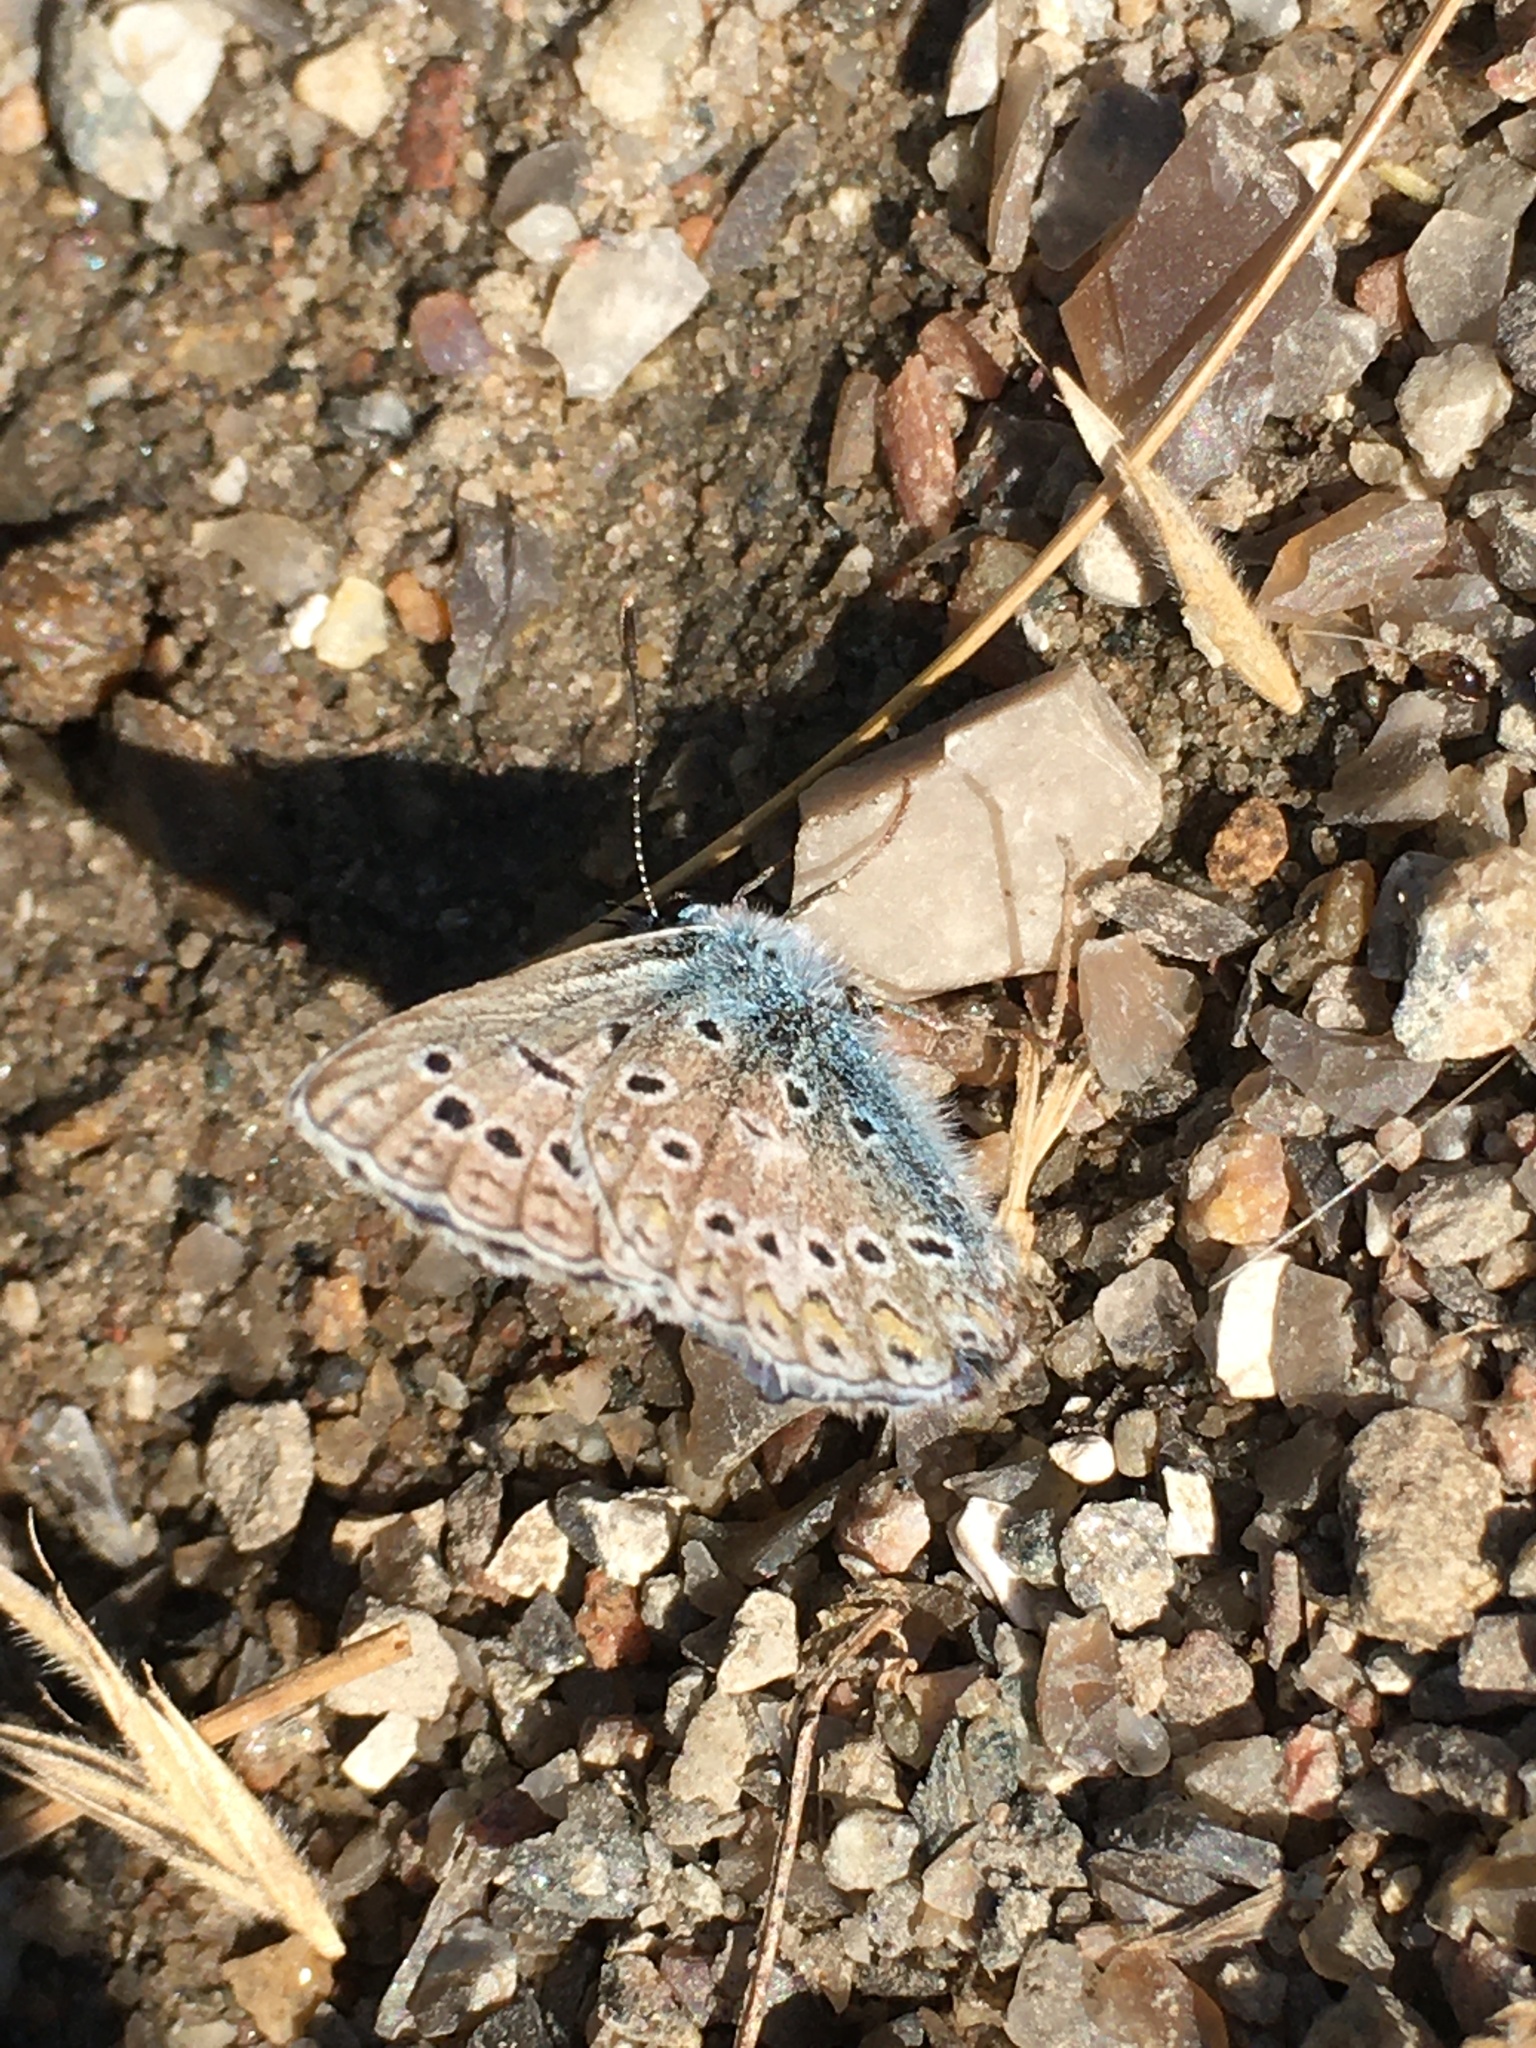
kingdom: Animalia
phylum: Arthropoda
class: Insecta
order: Lepidoptera
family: Lycaenidae
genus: Polyommatus
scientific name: Polyommatus icarus
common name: Common blue
